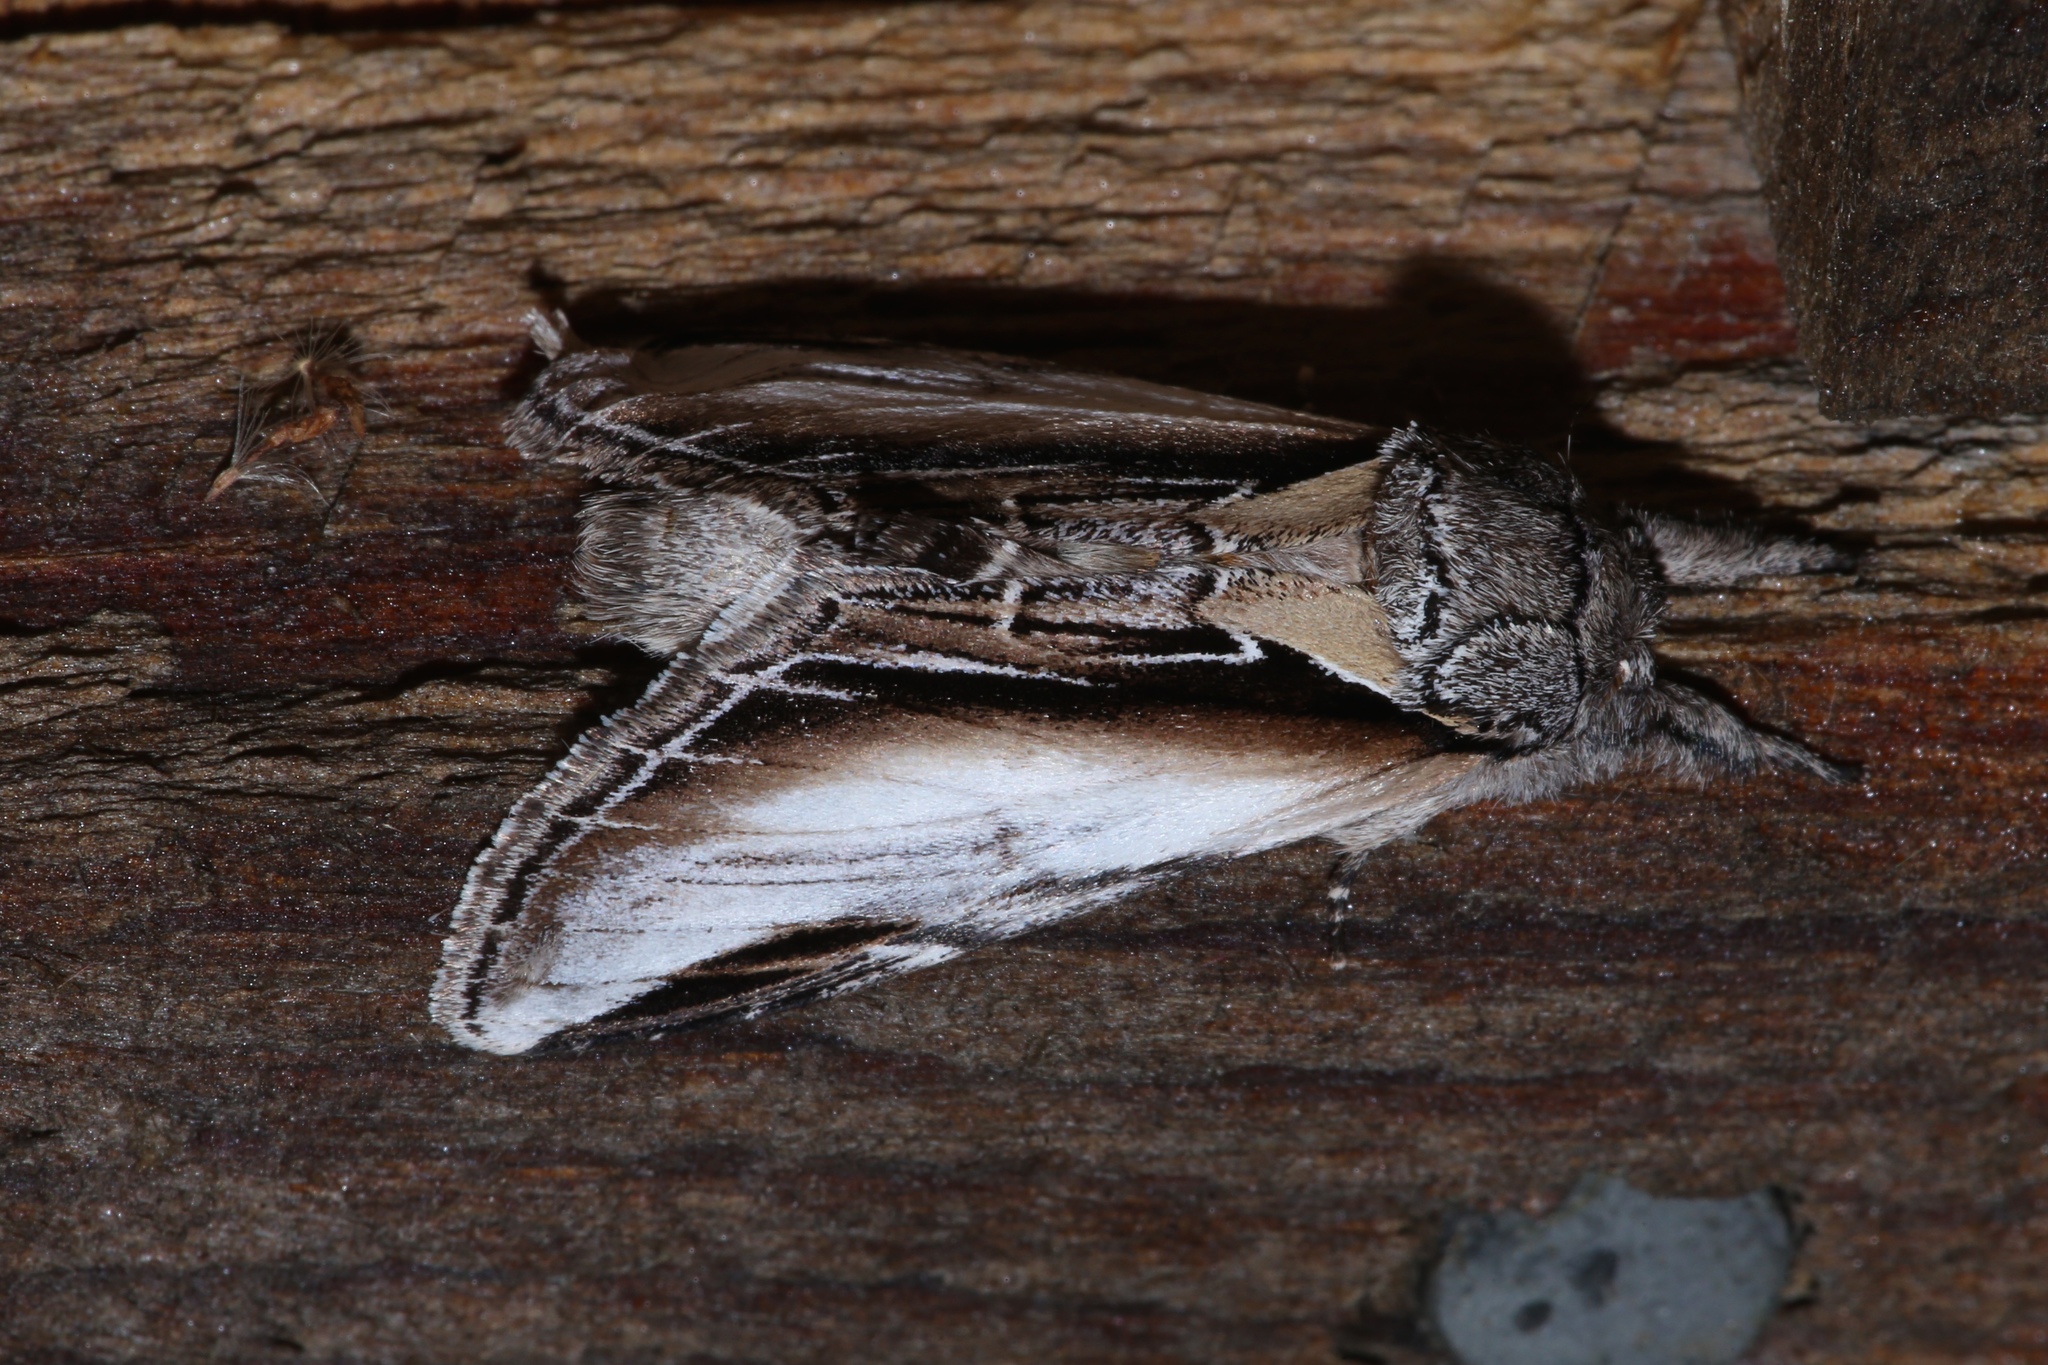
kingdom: Animalia
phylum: Arthropoda
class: Insecta
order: Lepidoptera
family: Notodontidae
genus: Pheosia
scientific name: Pheosia rimosa
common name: Black-rimmed prominent
